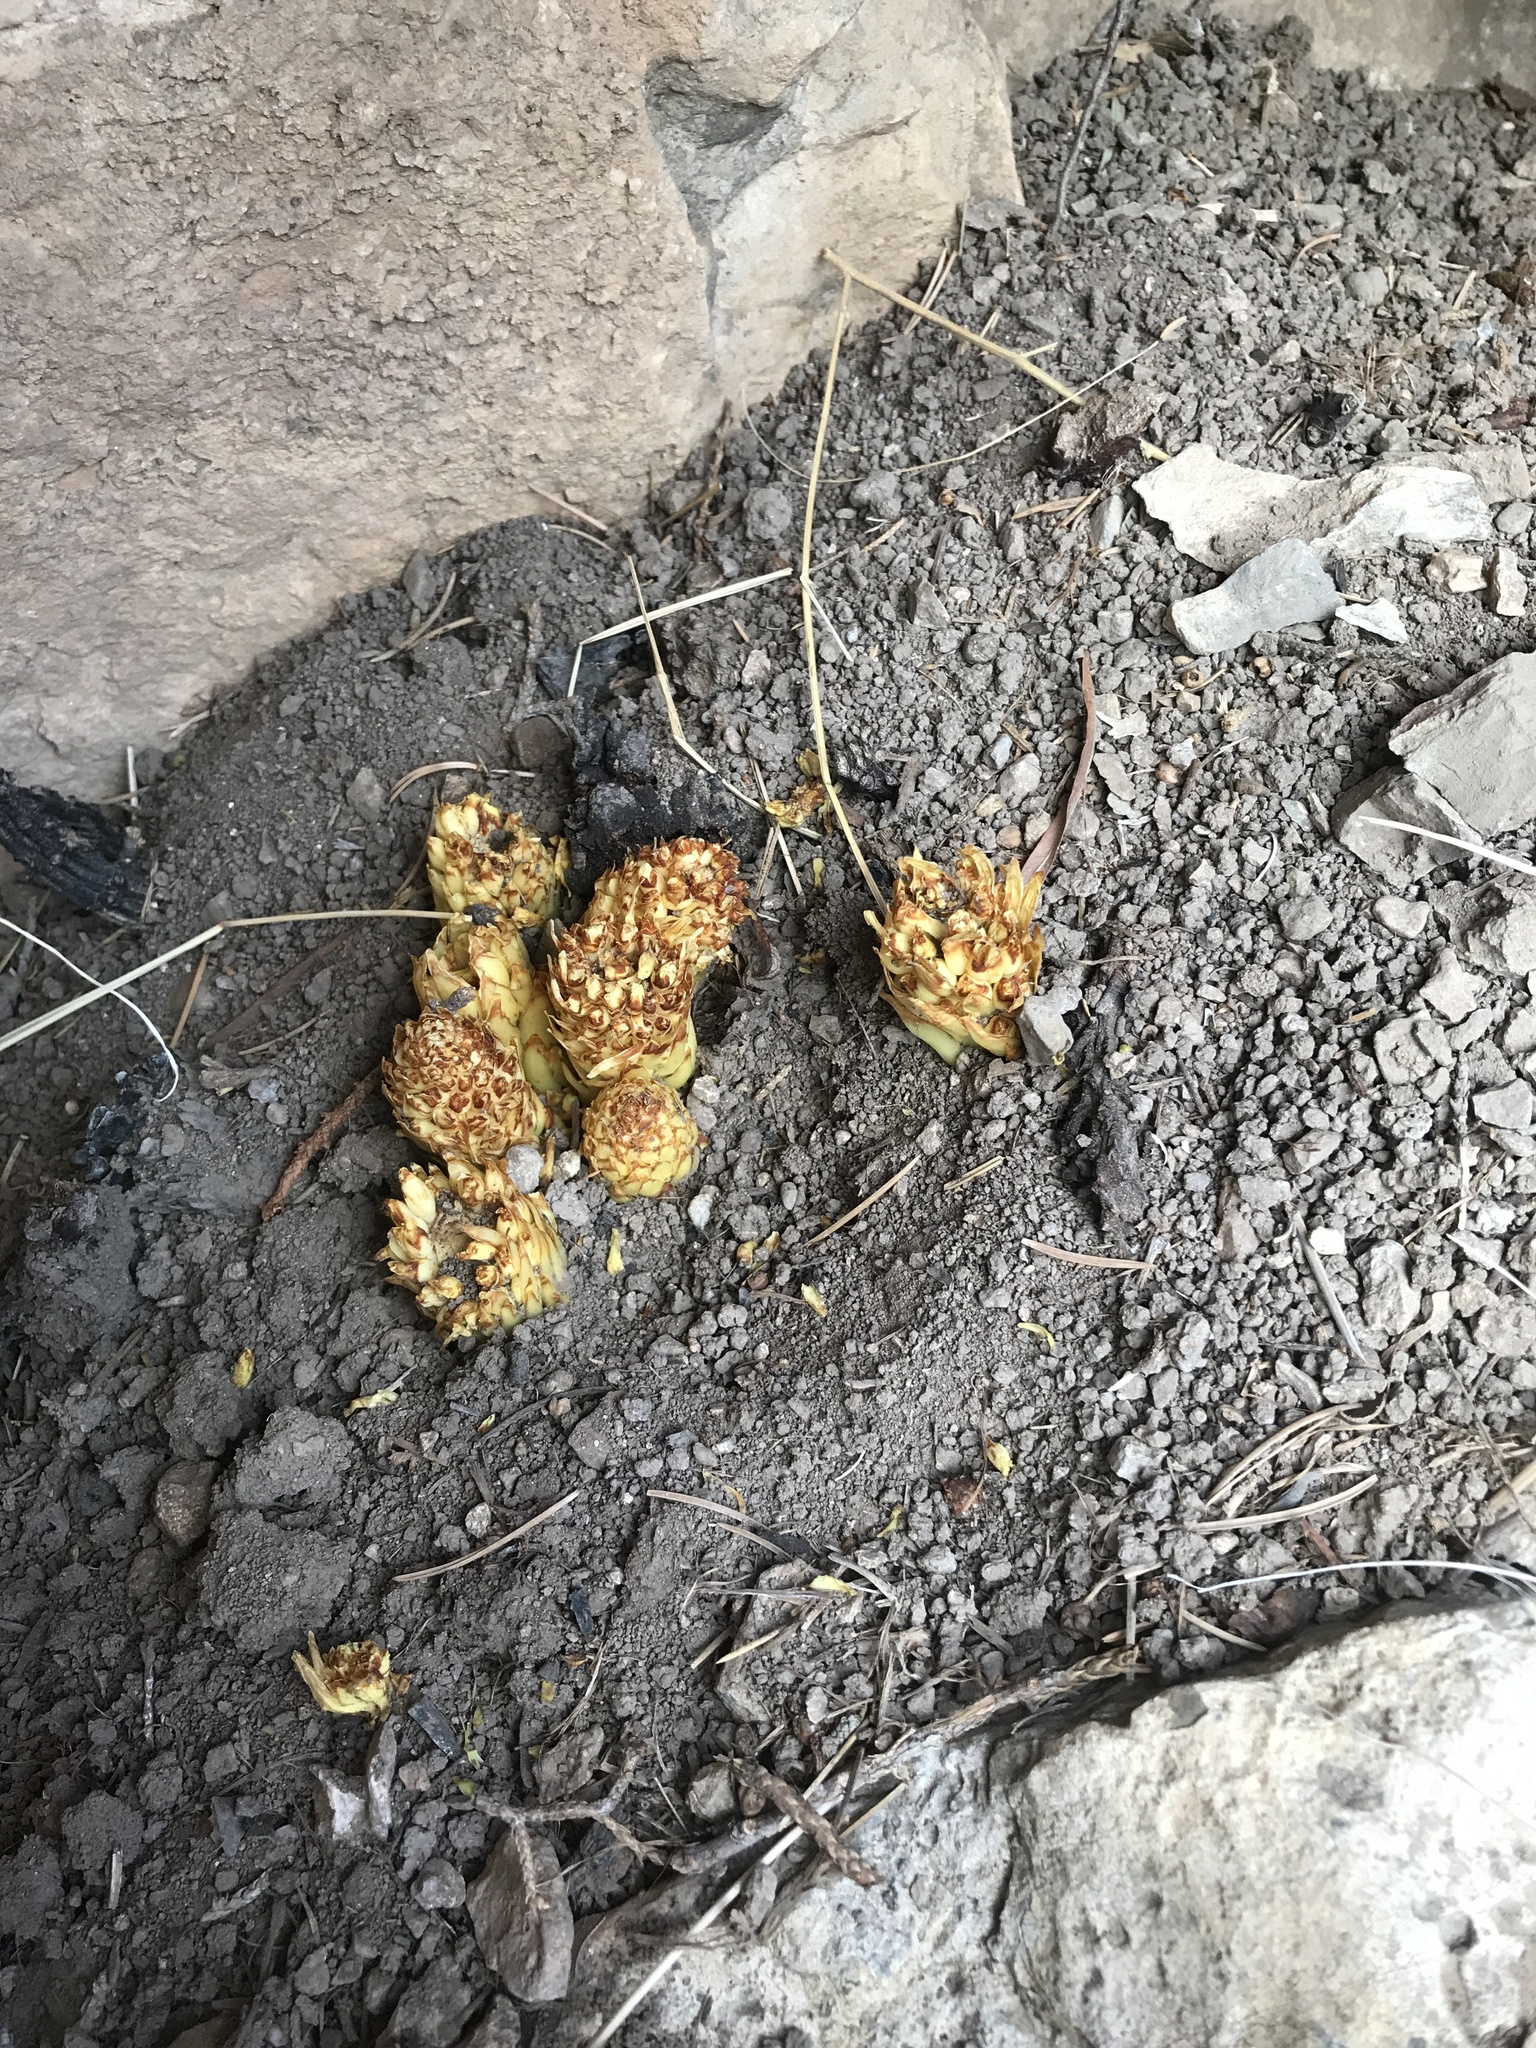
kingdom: Plantae
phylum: Tracheophyta
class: Magnoliopsida
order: Lamiales
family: Orobanchaceae
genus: Conopholis
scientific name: Conopholis alpina
